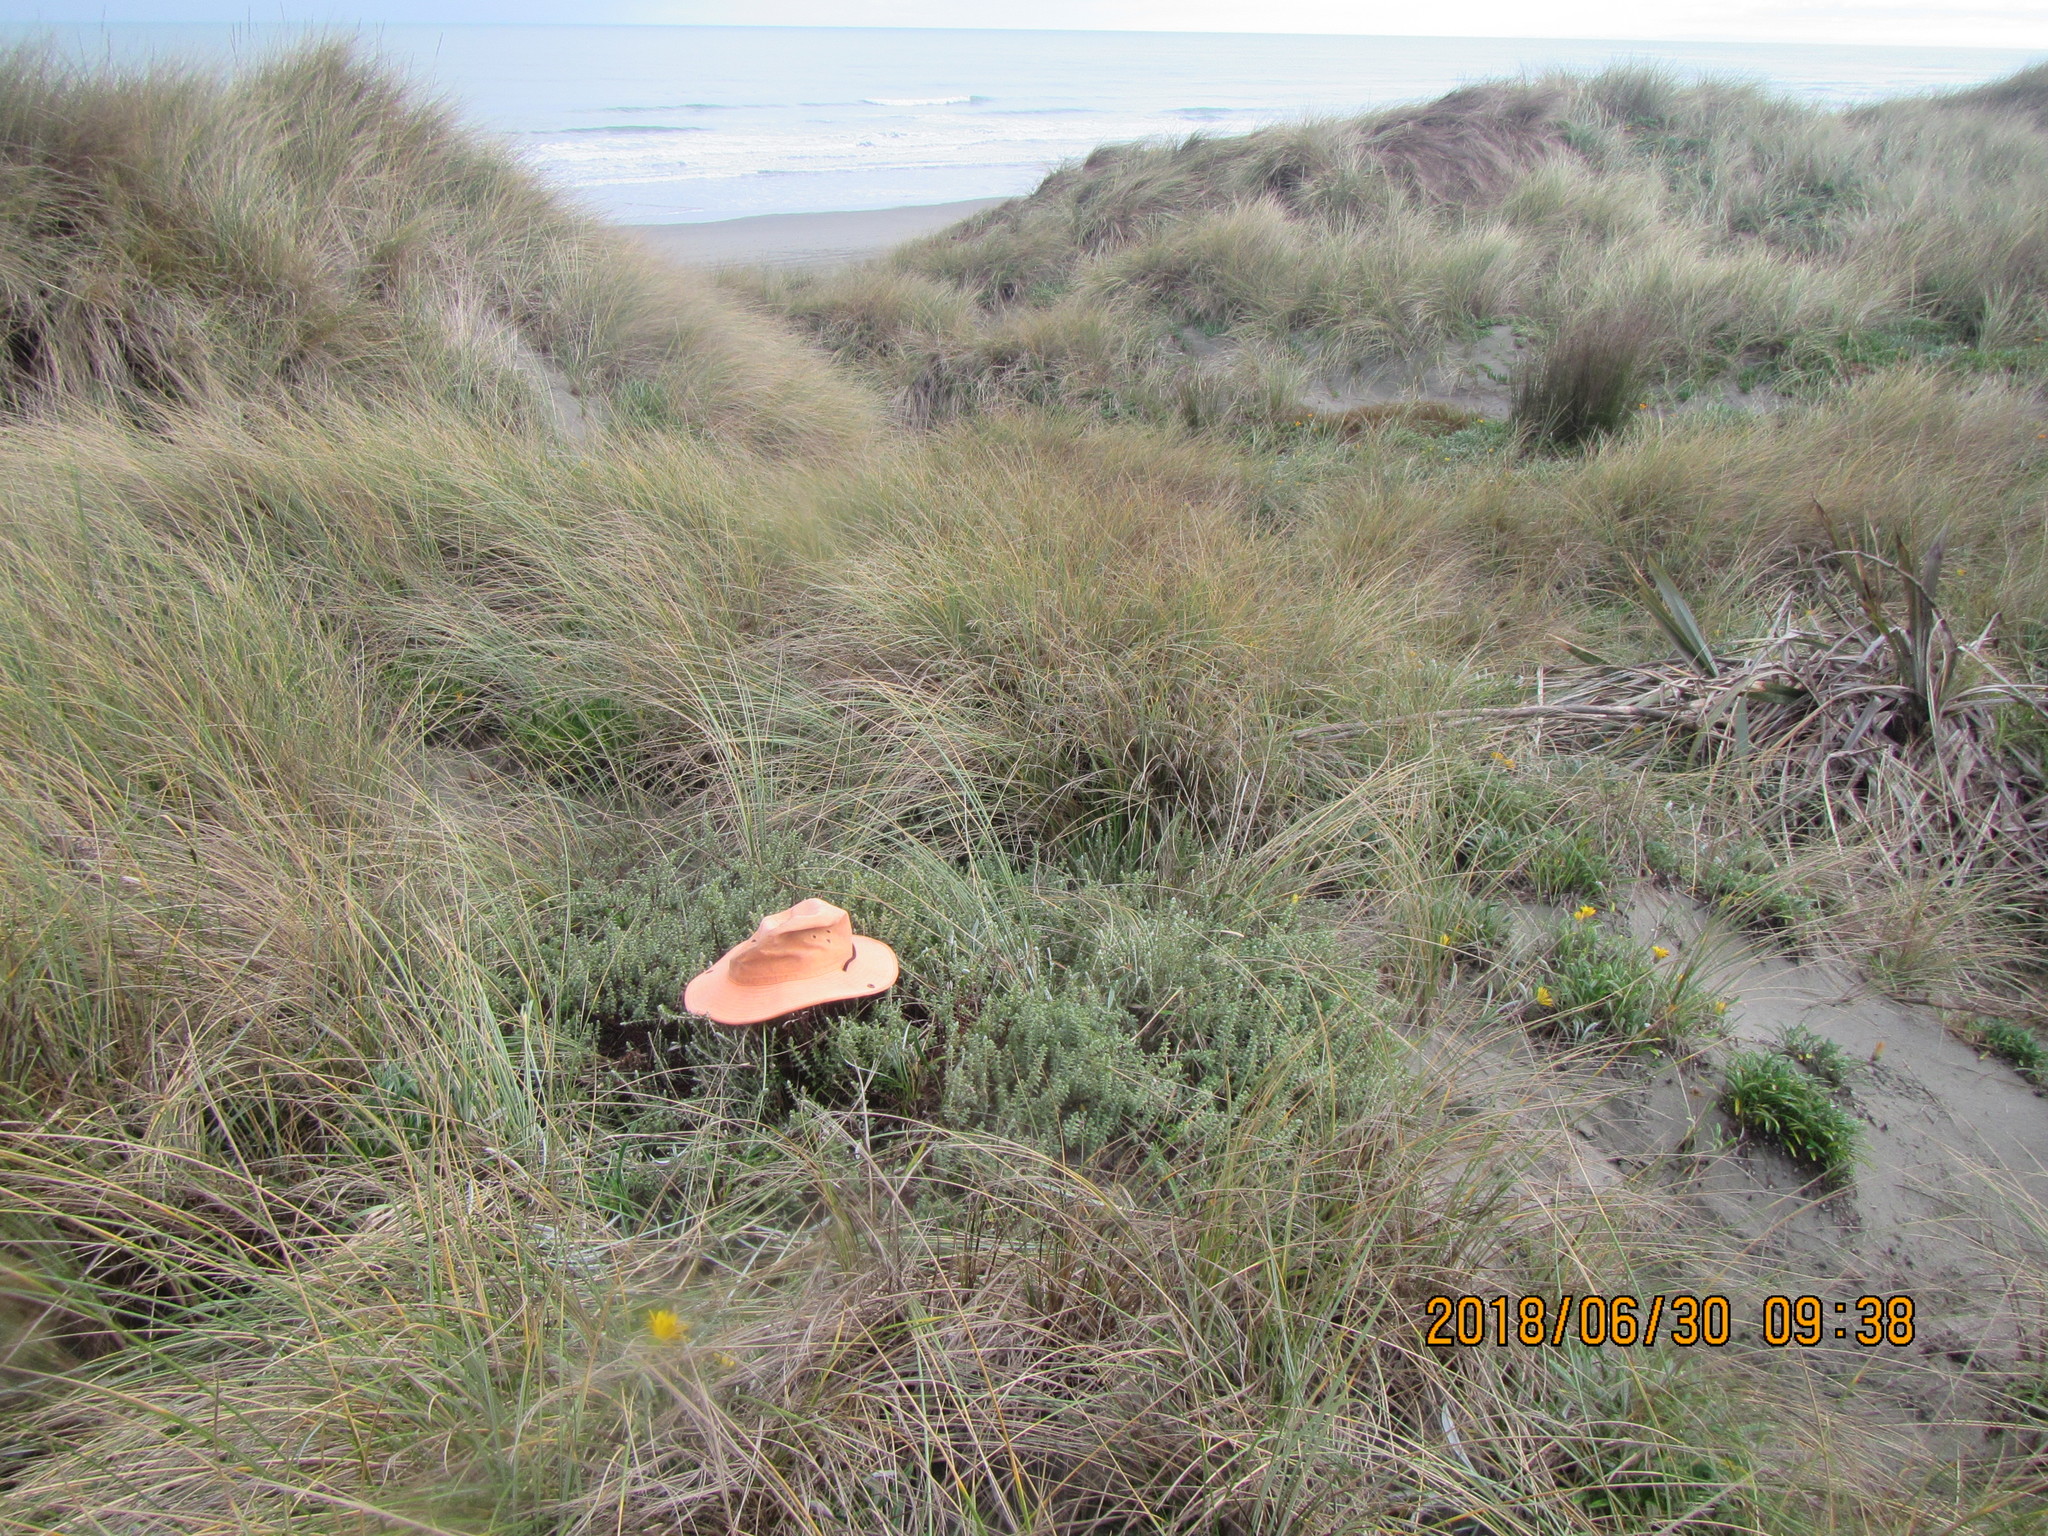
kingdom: Plantae
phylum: Tracheophyta
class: Magnoliopsida
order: Malvales
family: Thymelaeaceae
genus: Pimelea
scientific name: Pimelea villosa
